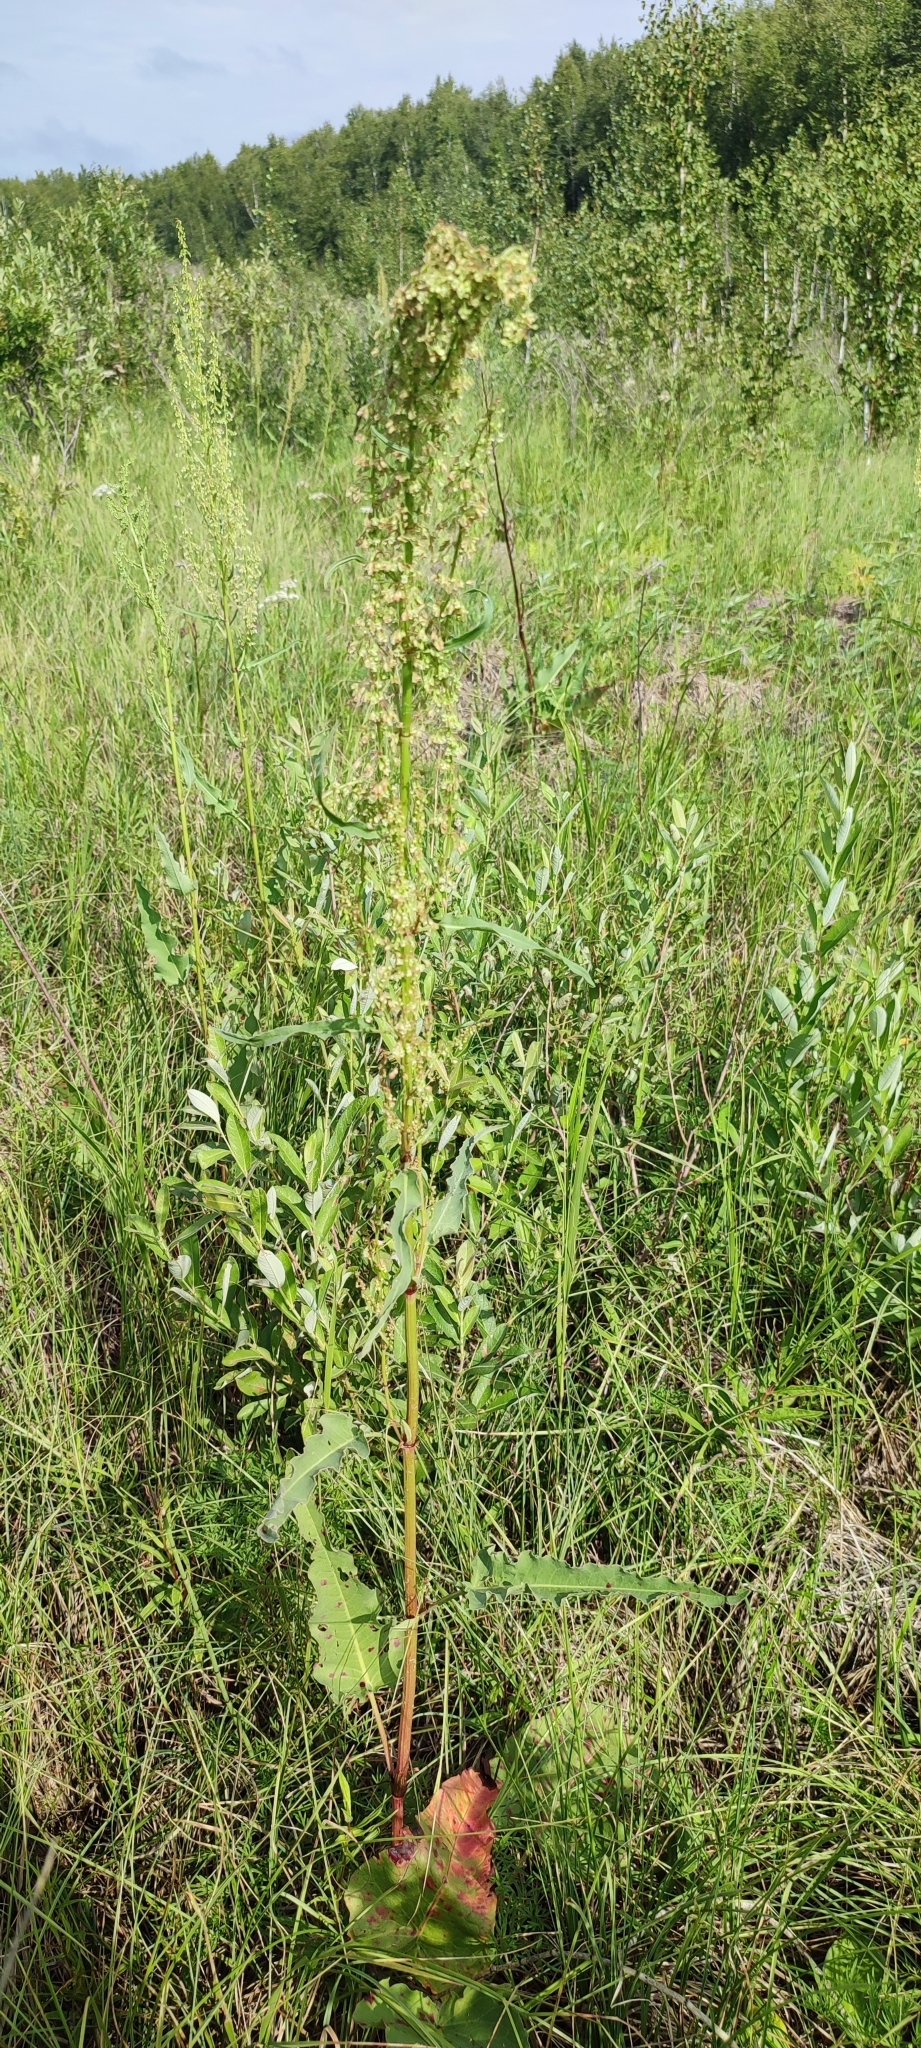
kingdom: Plantae
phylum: Tracheophyta
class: Magnoliopsida
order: Caryophyllales
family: Polygonaceae
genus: Rumex
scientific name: Rumex aquaticus
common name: Scottish dock
